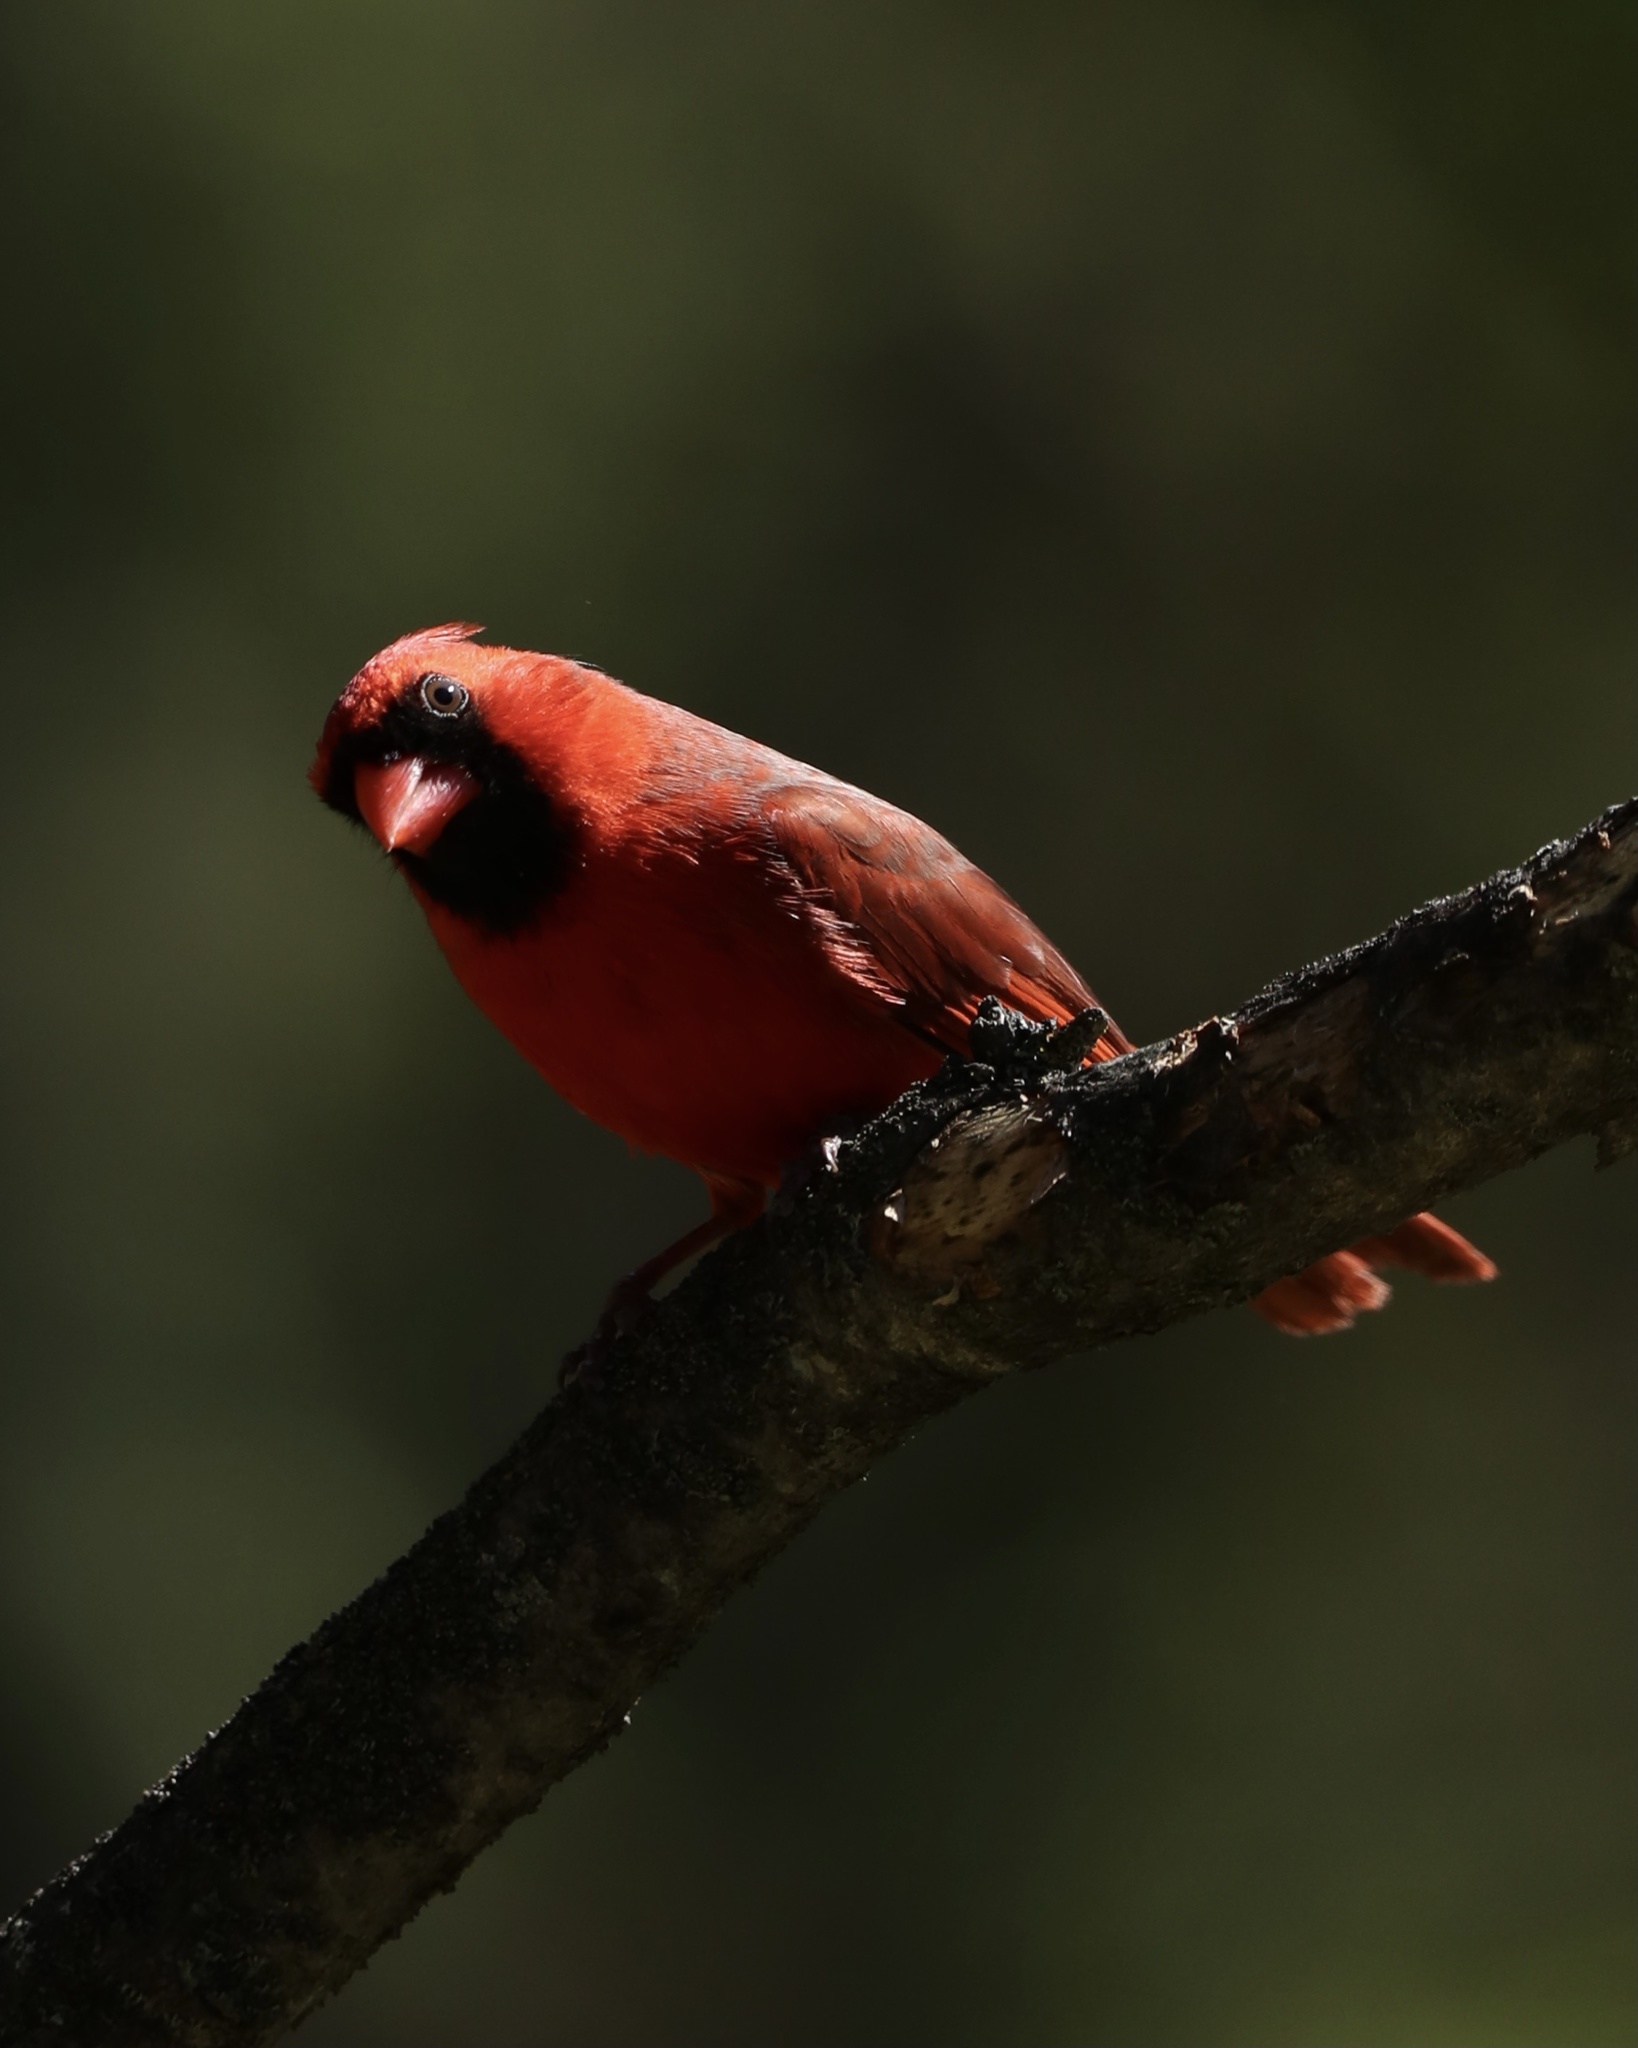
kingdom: Animalia
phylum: Chordata
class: Aves
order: Passeriformes
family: Cardinalidae
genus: Cardinalis
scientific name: Cardinalis cardinalis
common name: Northern cardinal
